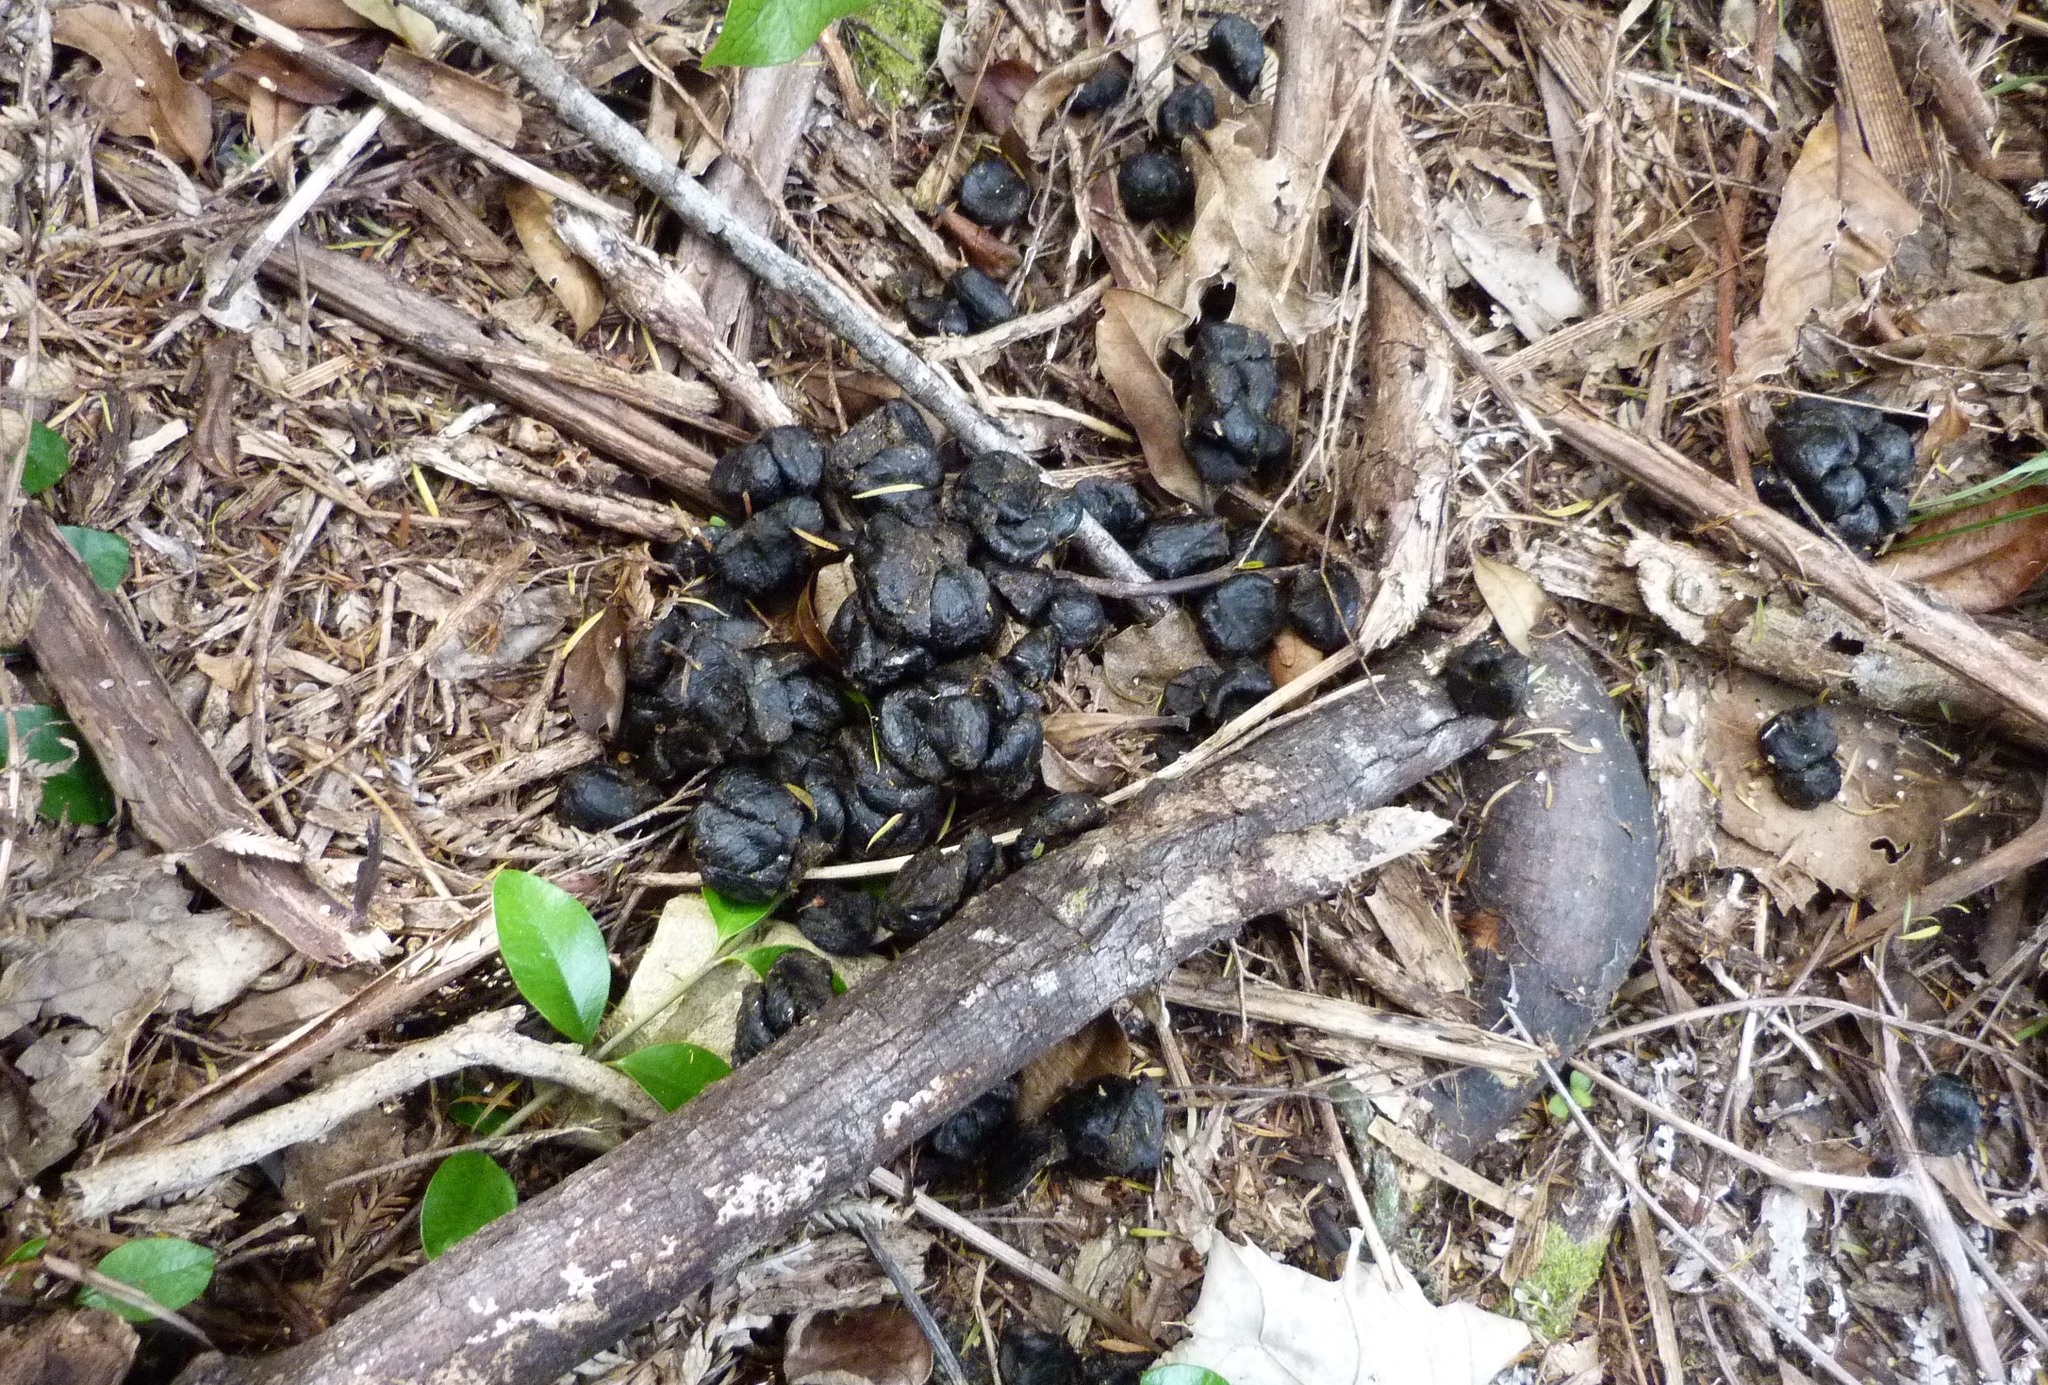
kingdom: Animalia
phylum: Chordata
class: Mammalia
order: Artiodactyla
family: Bovidae
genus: Capra
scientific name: Capra hircus
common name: Domestic goat
